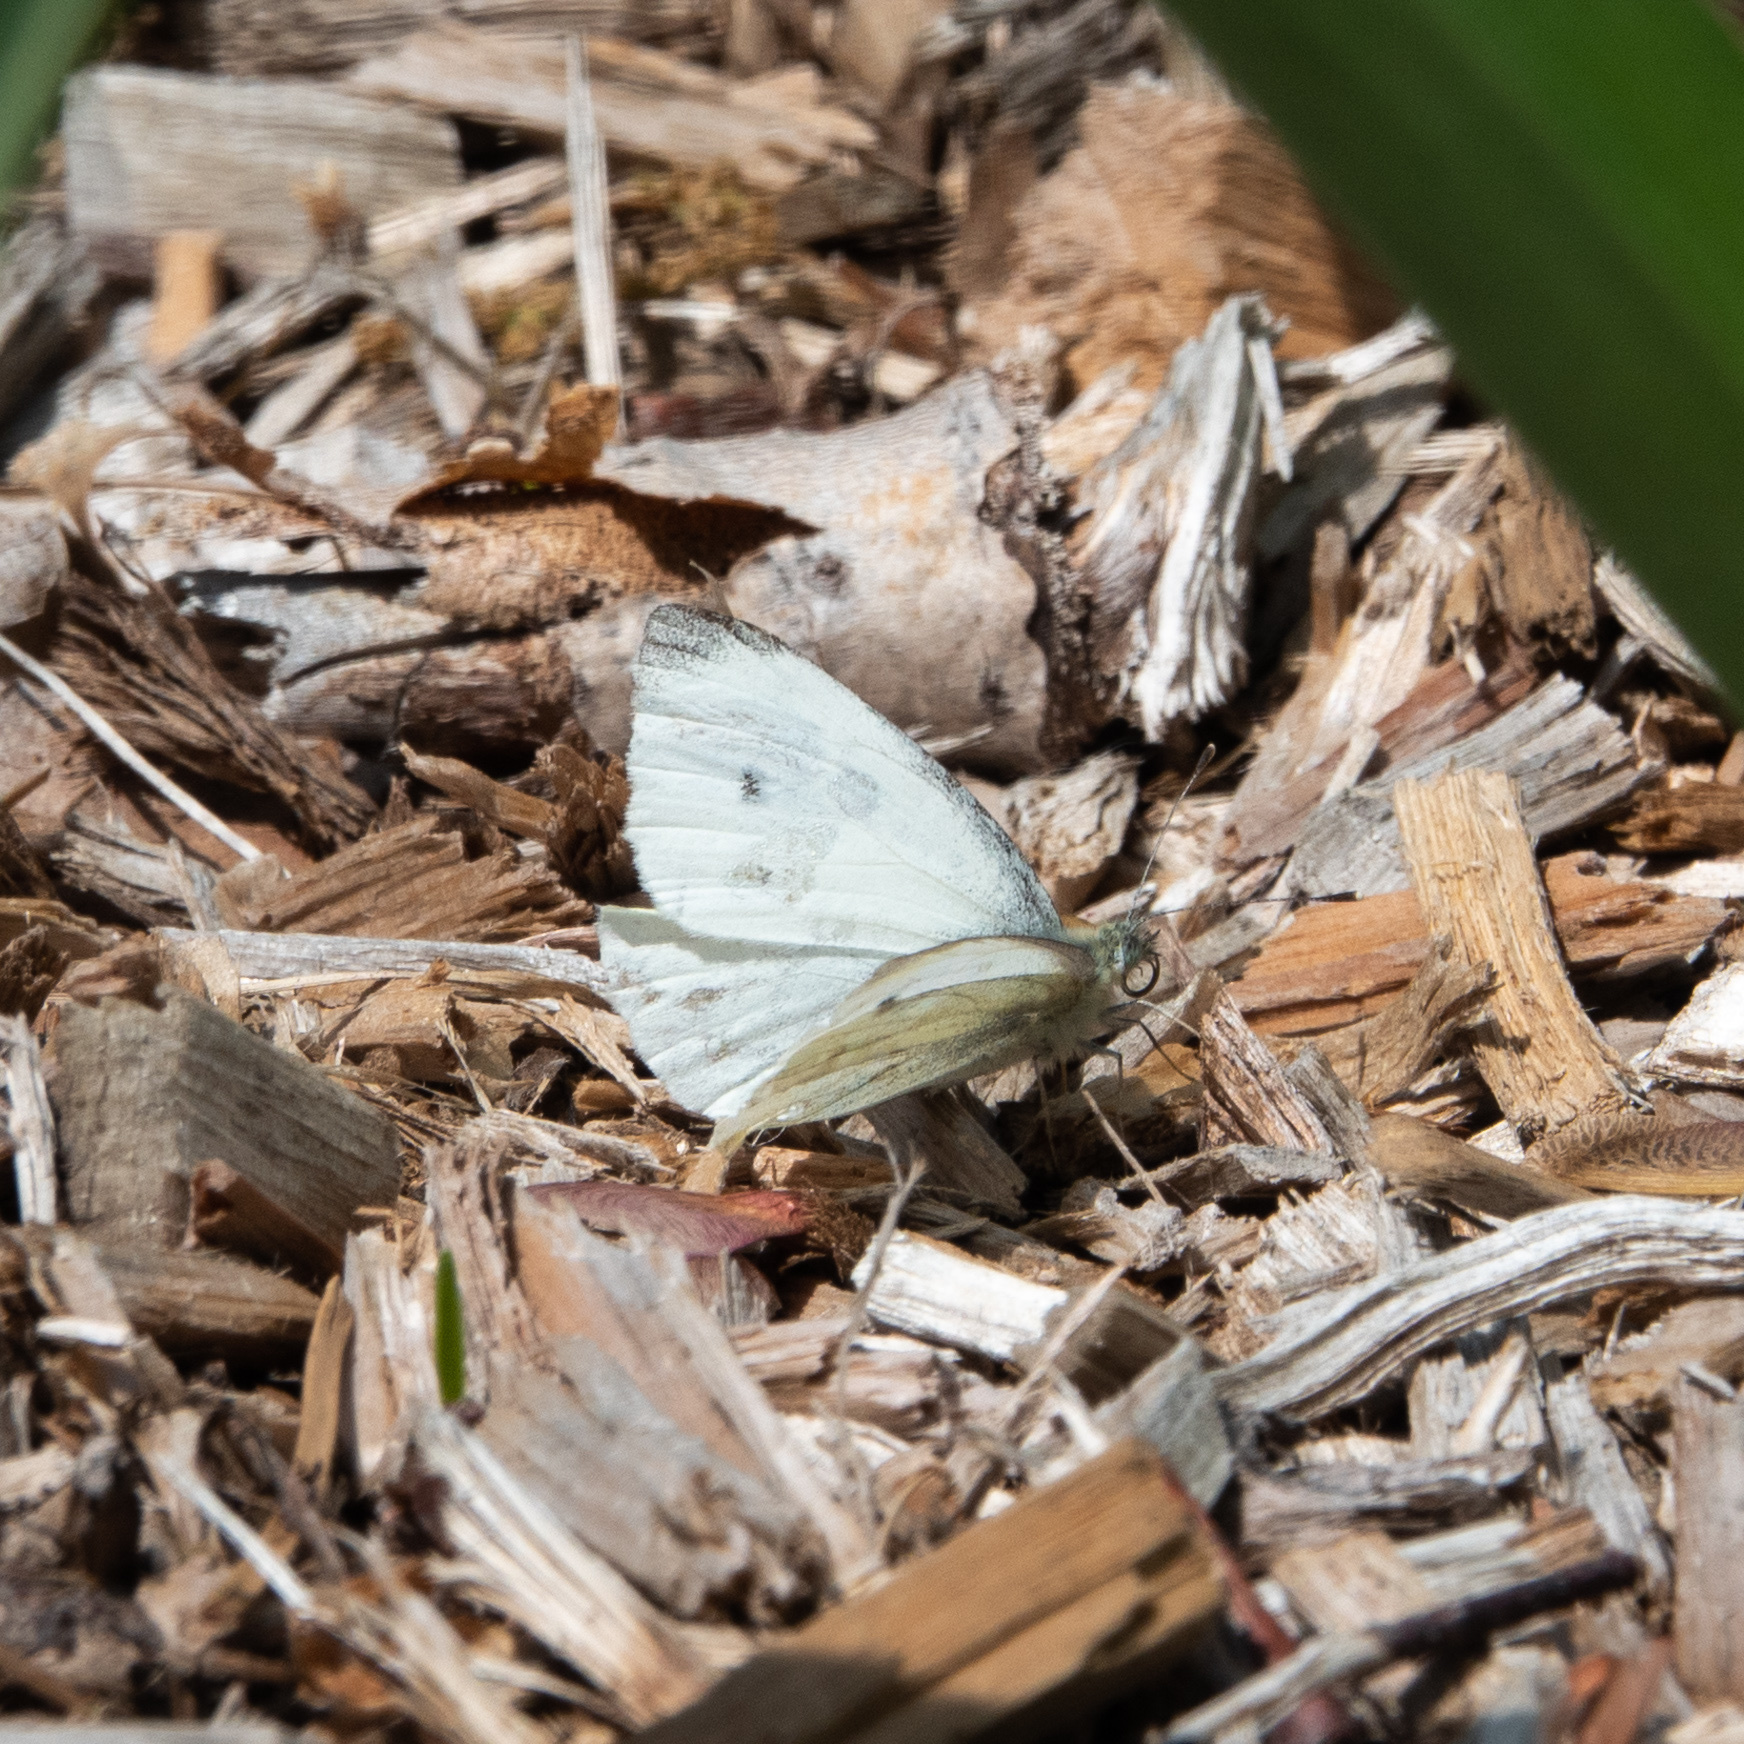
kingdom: Animalia
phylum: Arthropoda
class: Insecta
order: Lepidoptera
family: Pieridae
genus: Pieris
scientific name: Pieris rapae
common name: Small white
